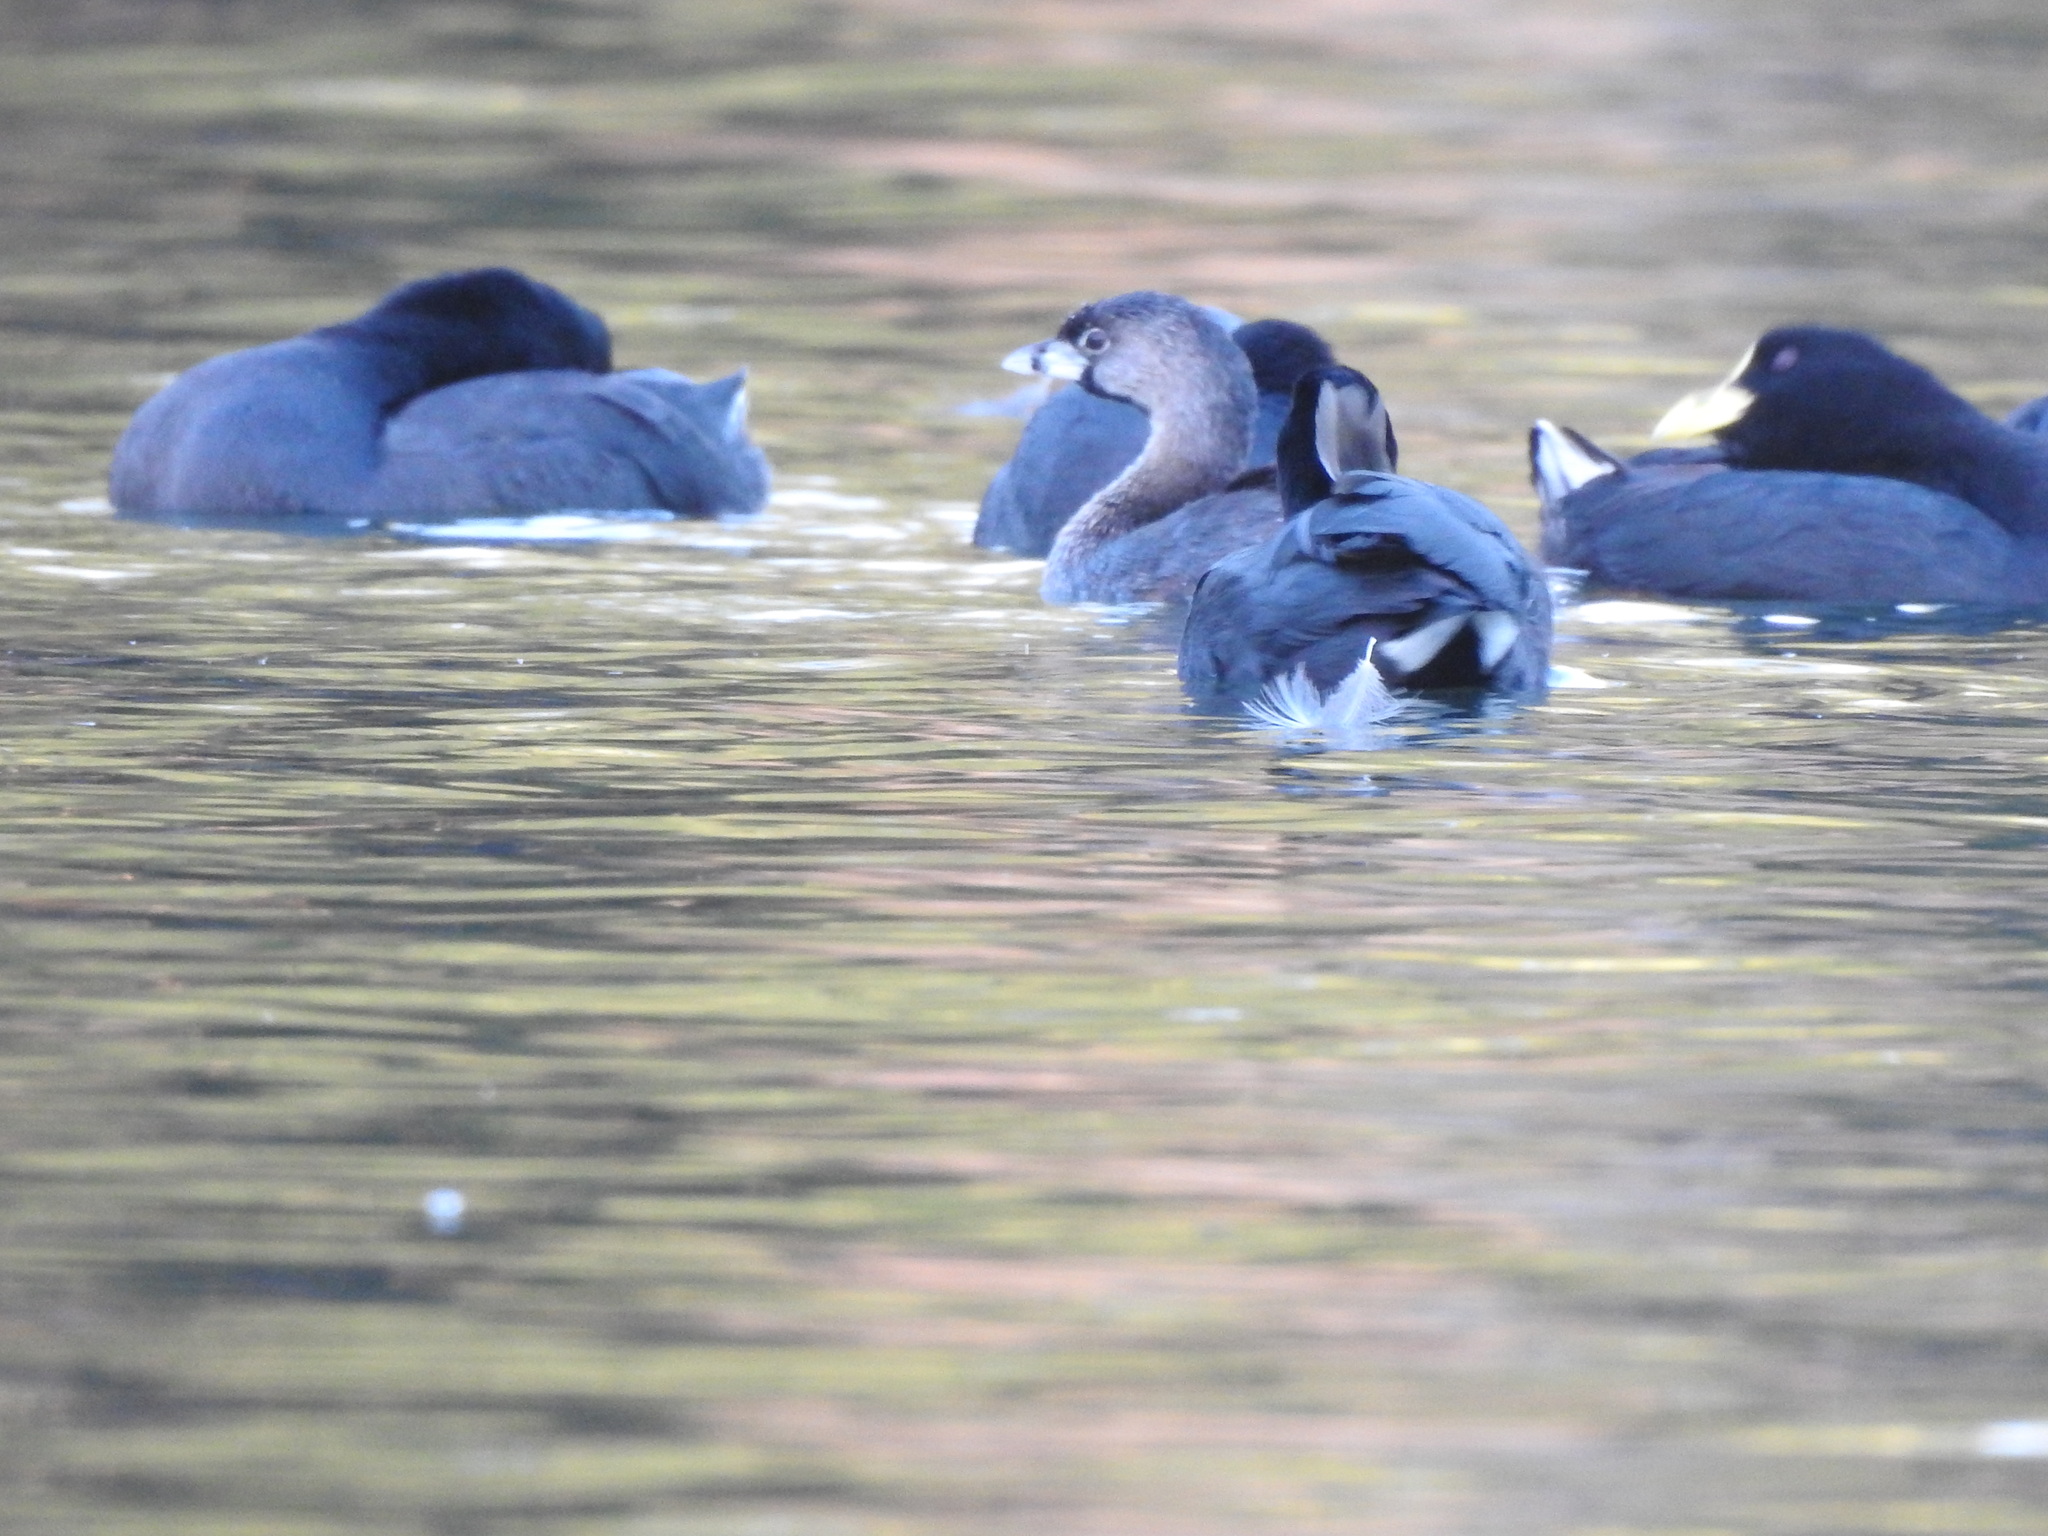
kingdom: Animalia
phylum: Chordata
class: Aves
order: Podicipediformes
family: Podicipedidae
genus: Podilymbus
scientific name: Podilymbus podiceps
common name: Pied-billed grebe
